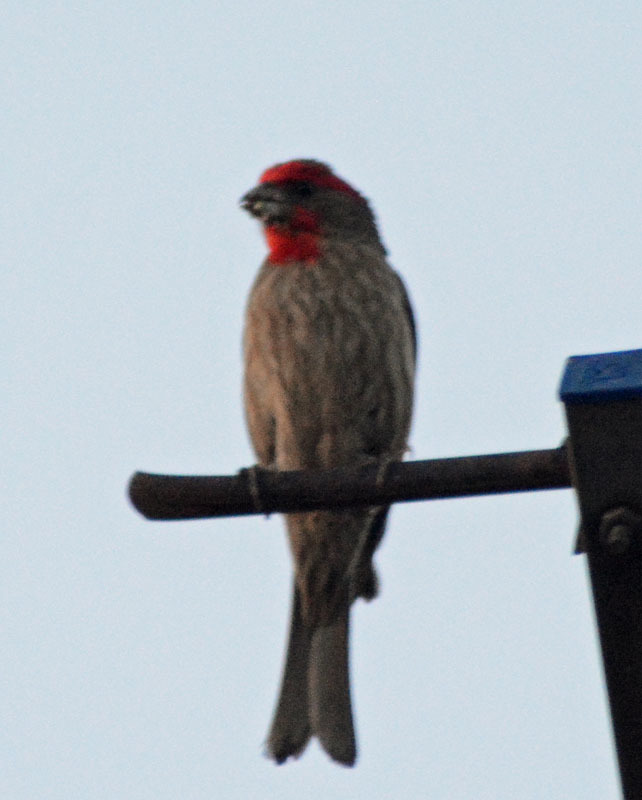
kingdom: Animalia
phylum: Chordata
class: Aves
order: Passeriformes
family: Fringillidae
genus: Haemorhous
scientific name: Haemorhous mexicanus
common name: House finch
